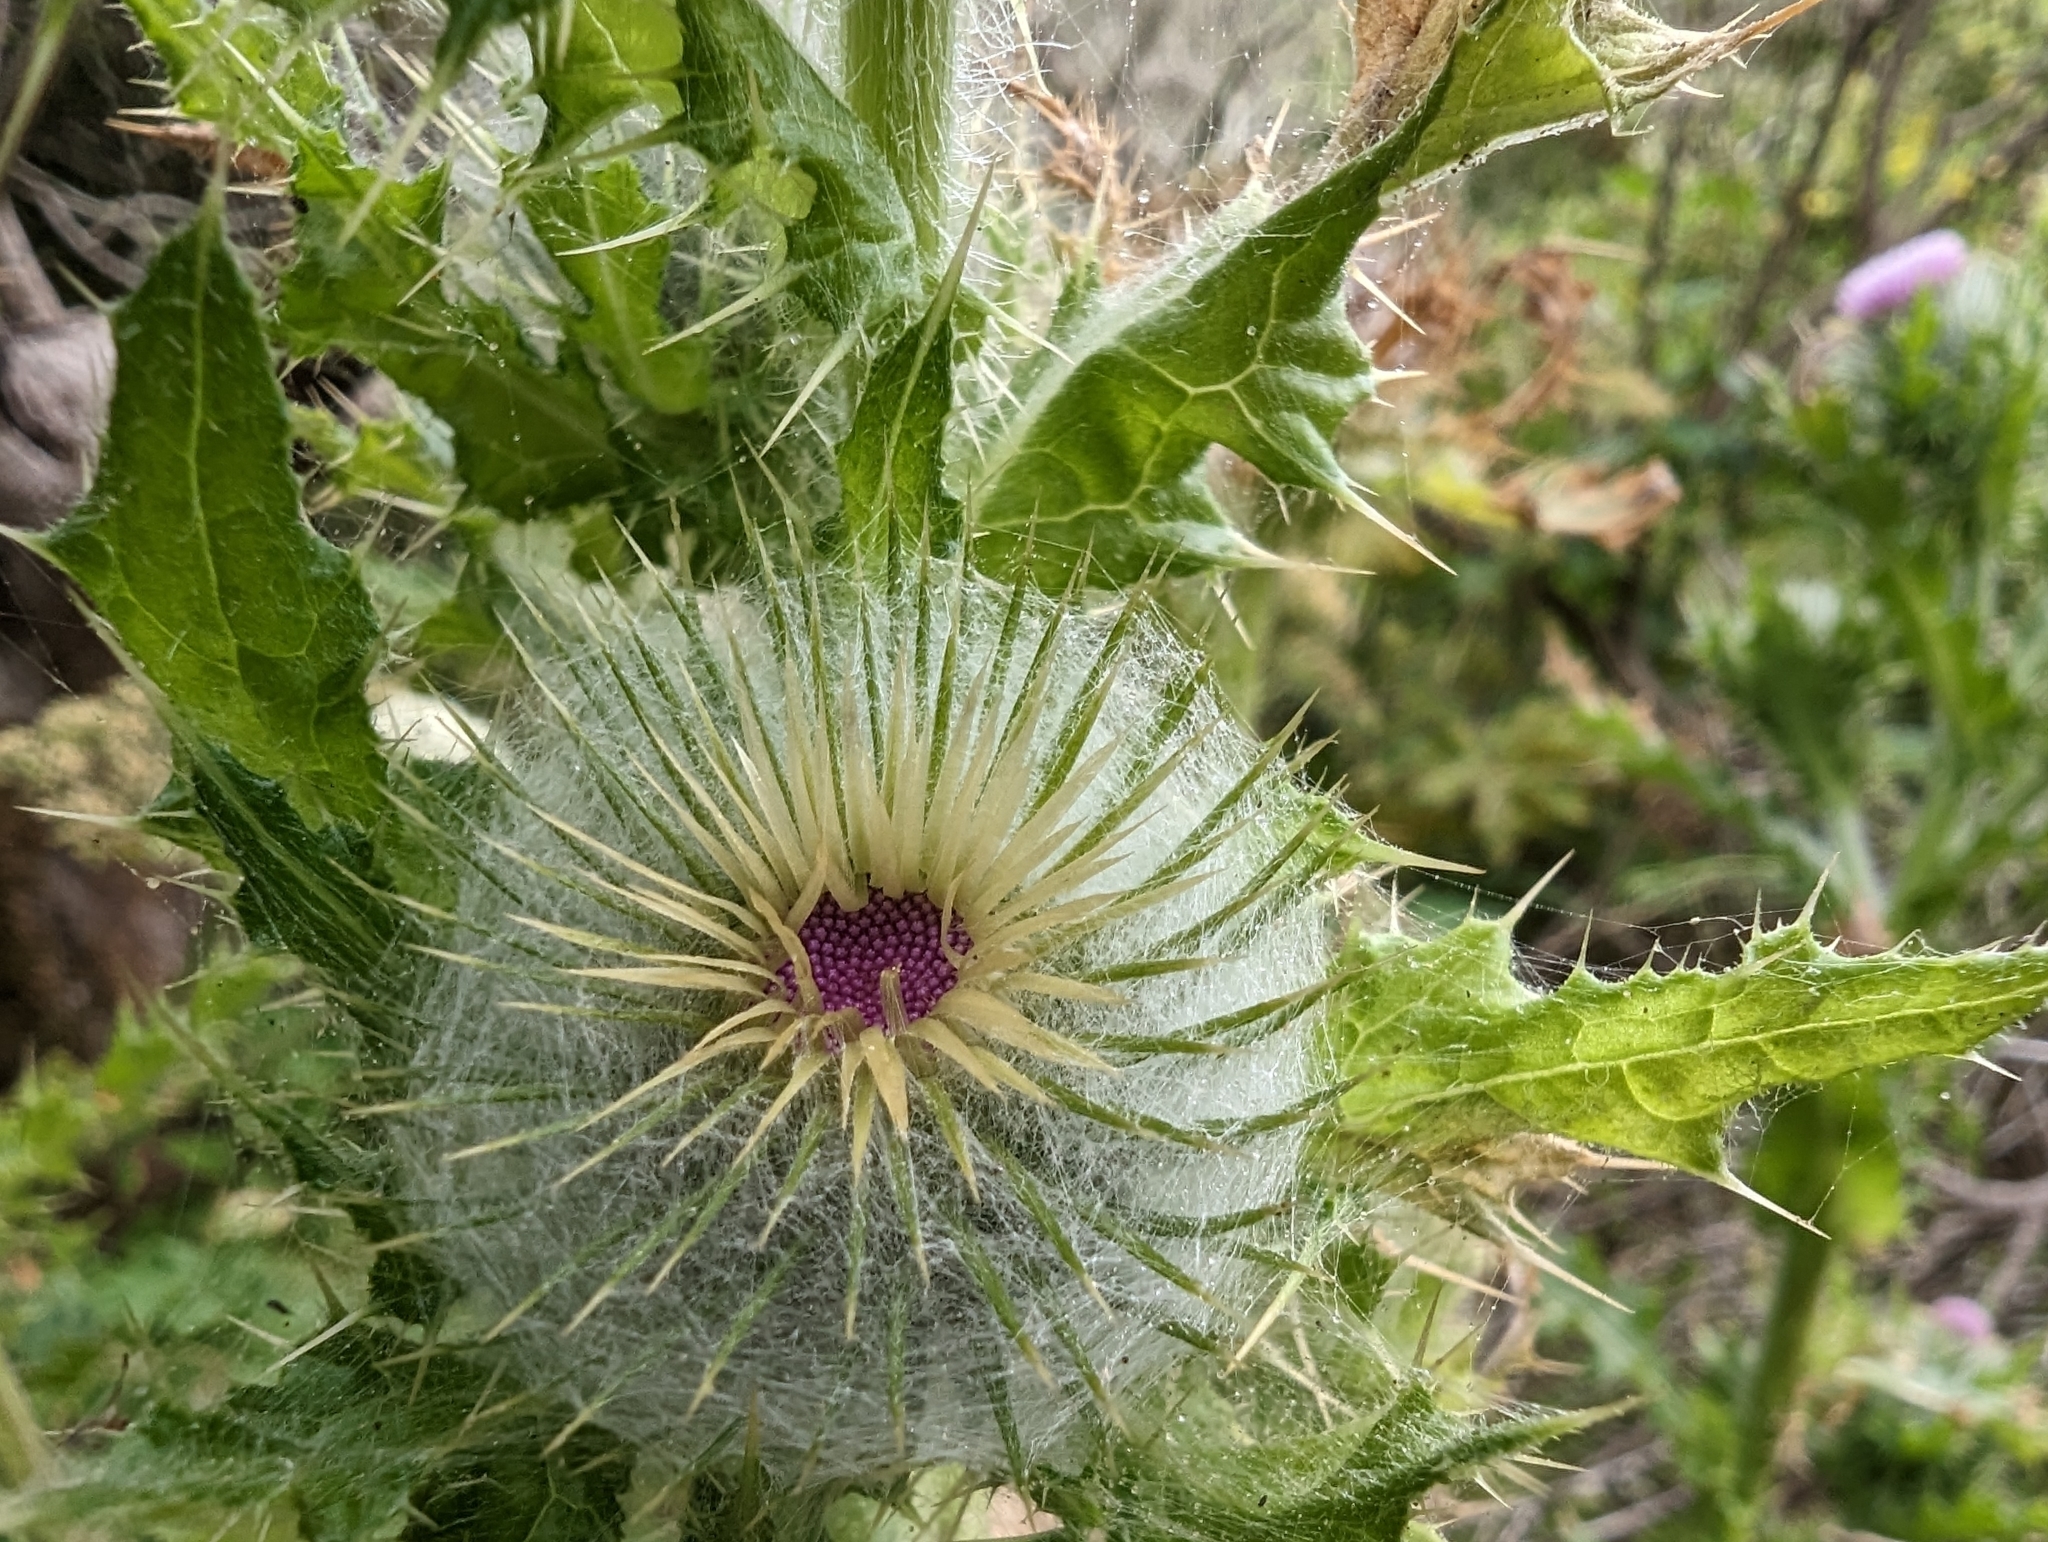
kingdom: Plantae
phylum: Tracheophyta
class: Magnoliopsida
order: Asterales
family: Asteraceae
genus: Cirsium
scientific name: Cirsium brevistylum
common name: Indian thistle
